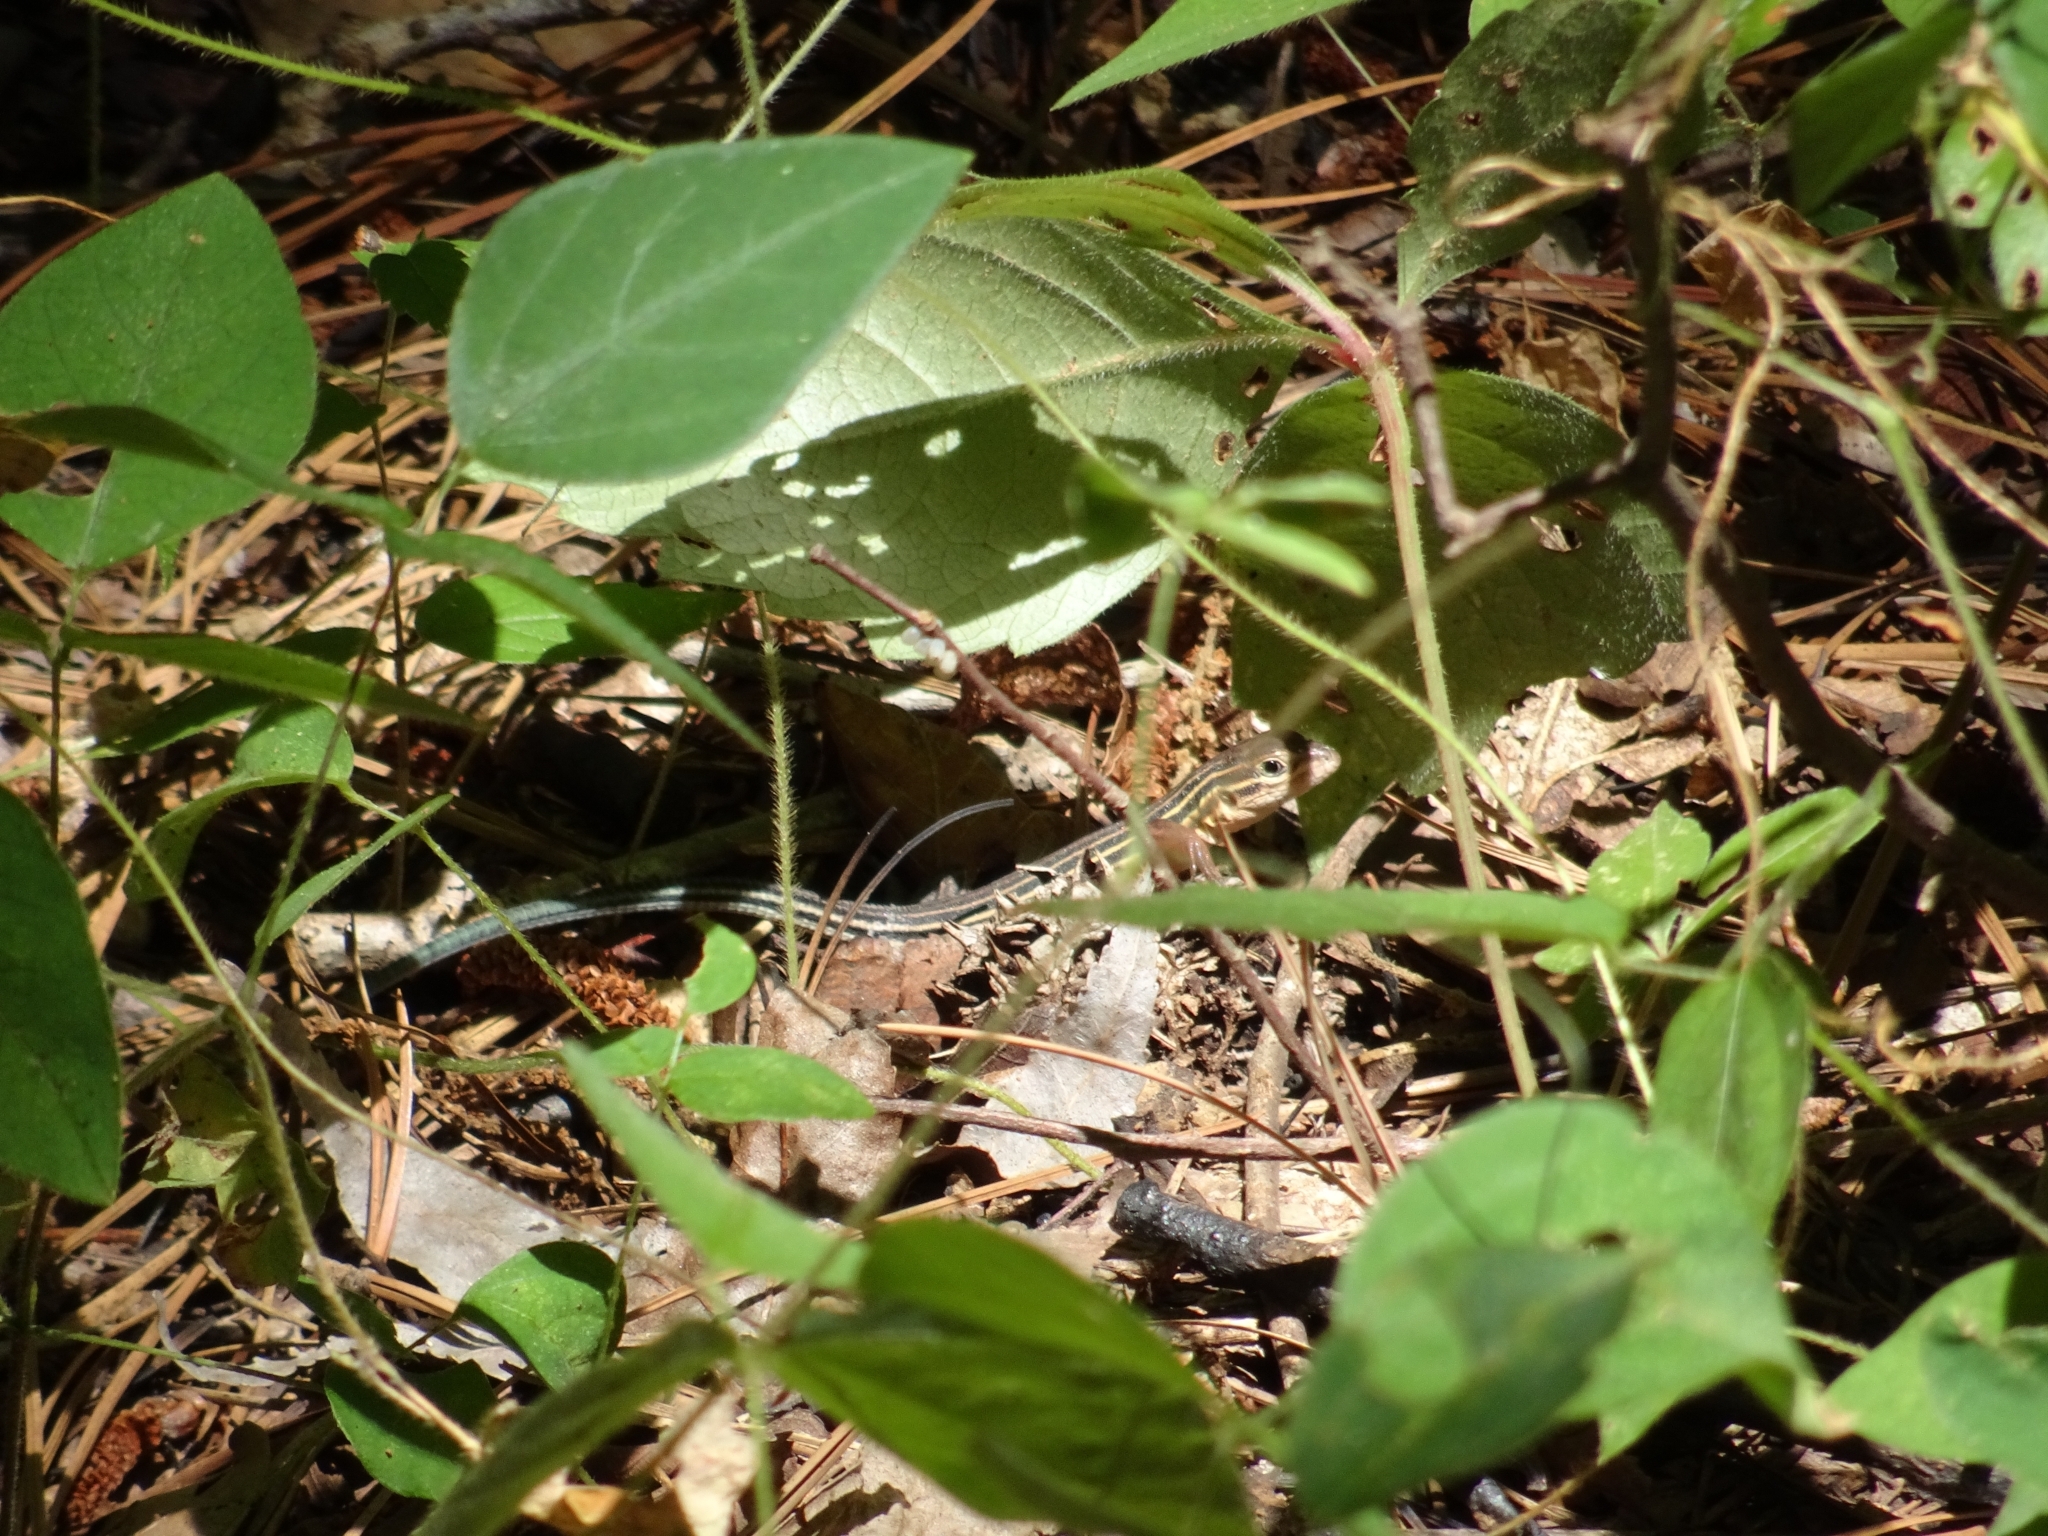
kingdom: Animalia
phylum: Chordata
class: Squamata
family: Teiidae
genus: Aspidoscelis
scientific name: Aspidoscelis sexlineatus
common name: Six-lined racerunner
